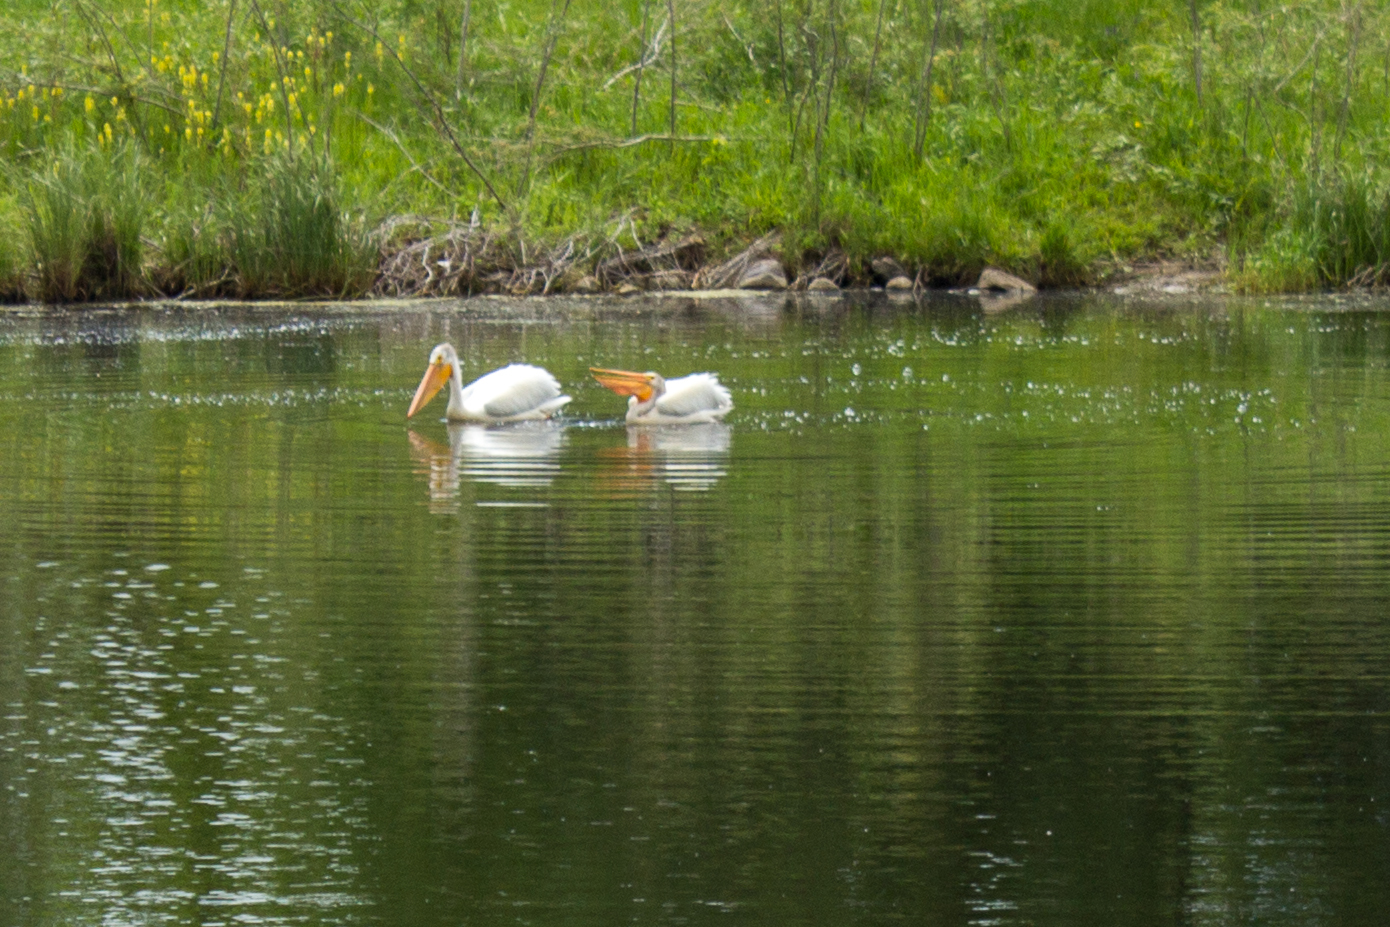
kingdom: Animalia
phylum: Chordata
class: Aves
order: Pelecaniformes
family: Pelecanidae
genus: Pelecanus
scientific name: Pelecanus erythrorhynchos
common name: American white pelican
